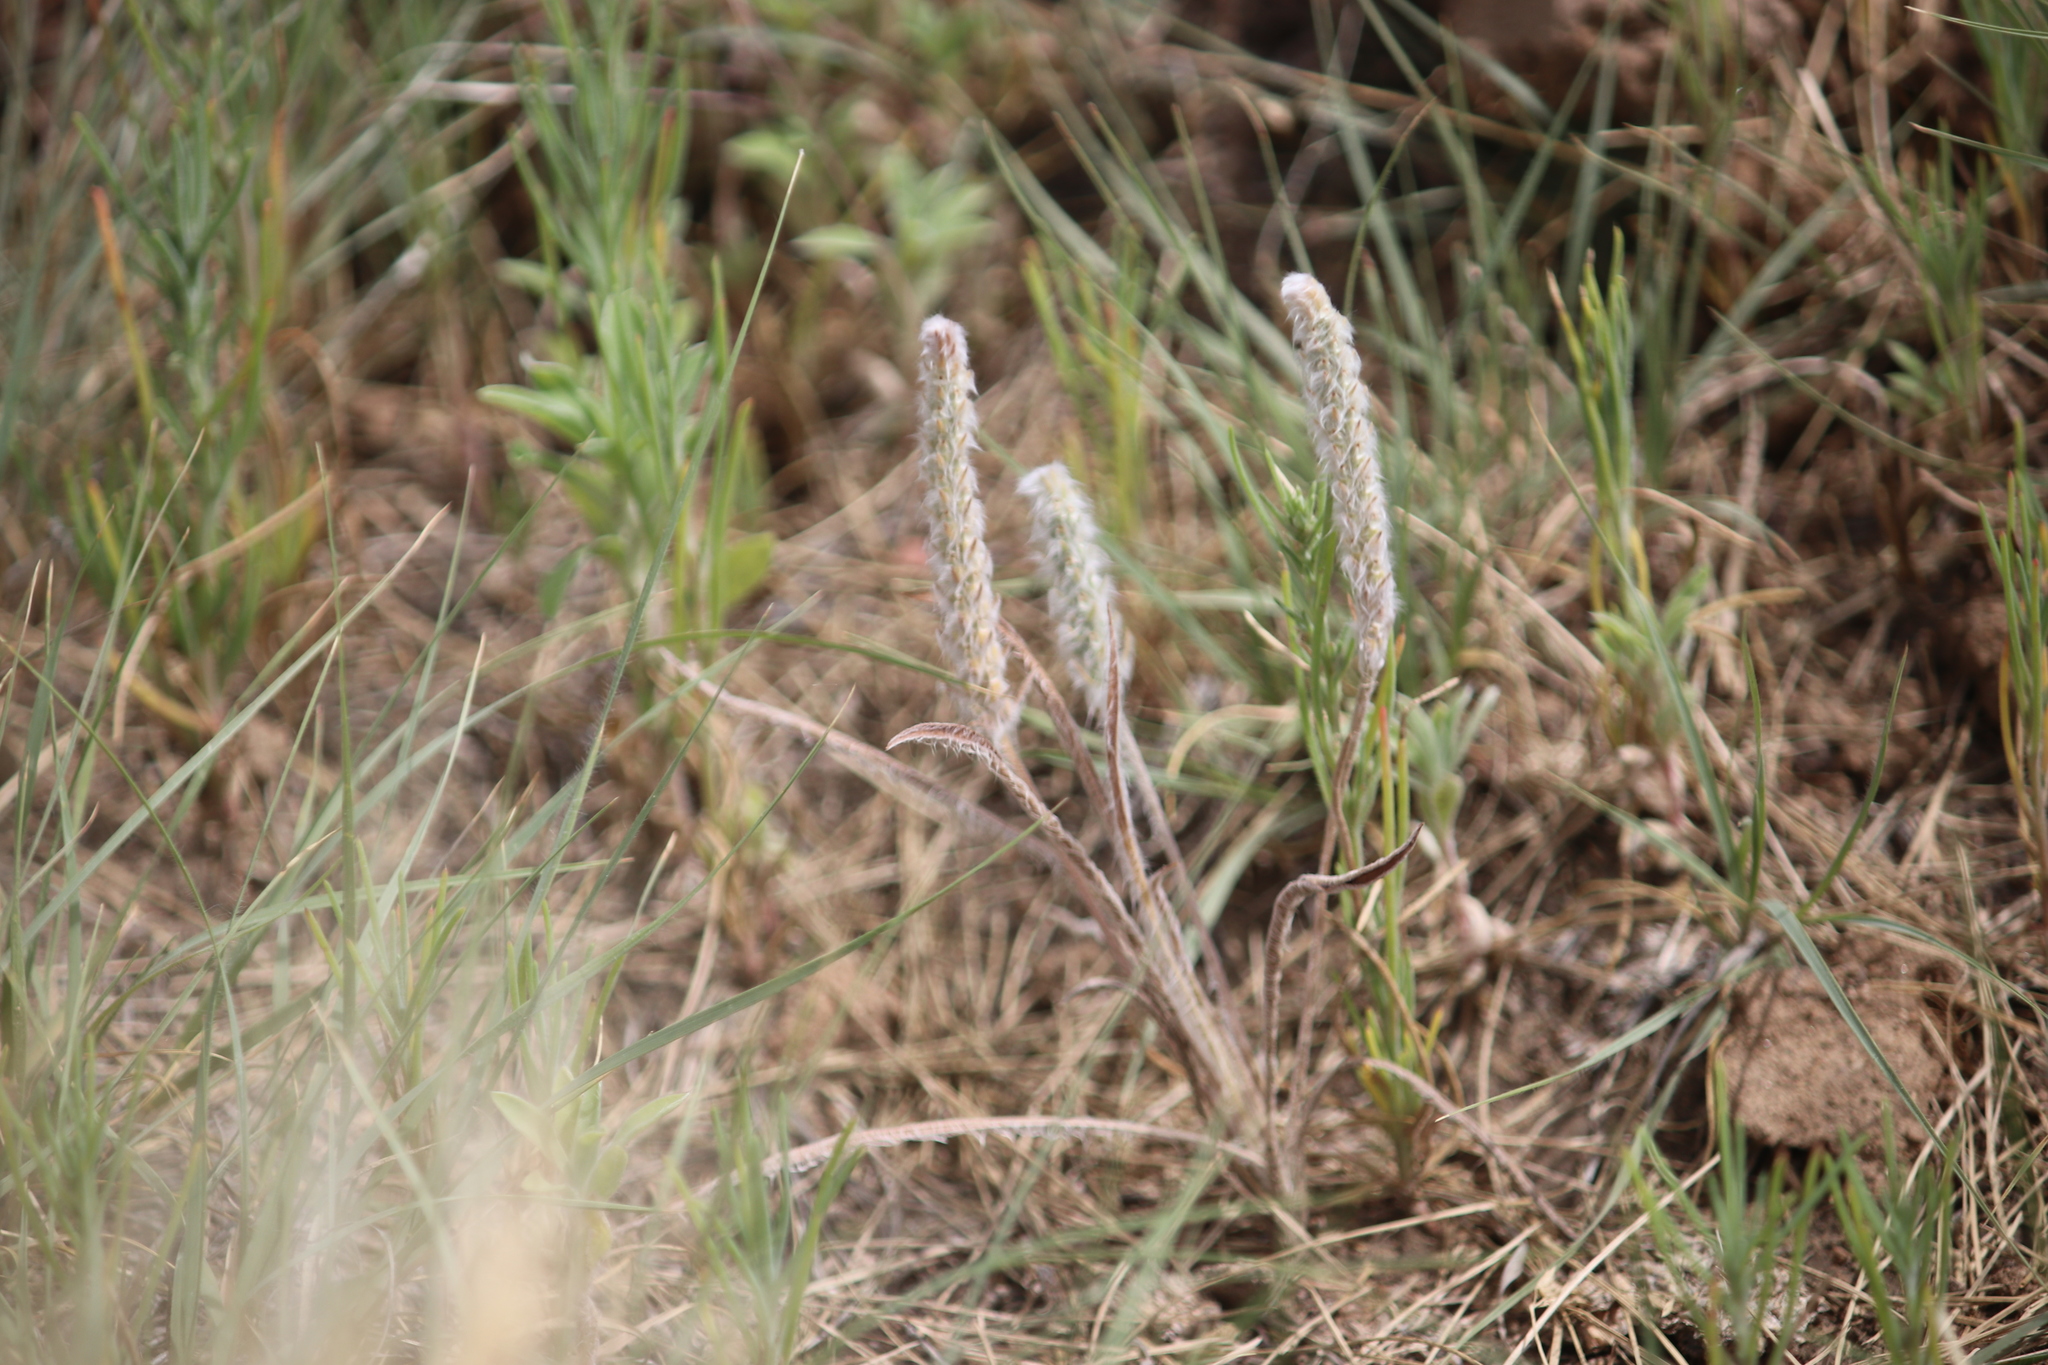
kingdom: Plantae
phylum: Tracheophyta
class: Magnoliopsida
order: Lamiales
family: Plantaginaceae
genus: Plantago
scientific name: Plantago patagonica
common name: Patagonia indian-wheat
